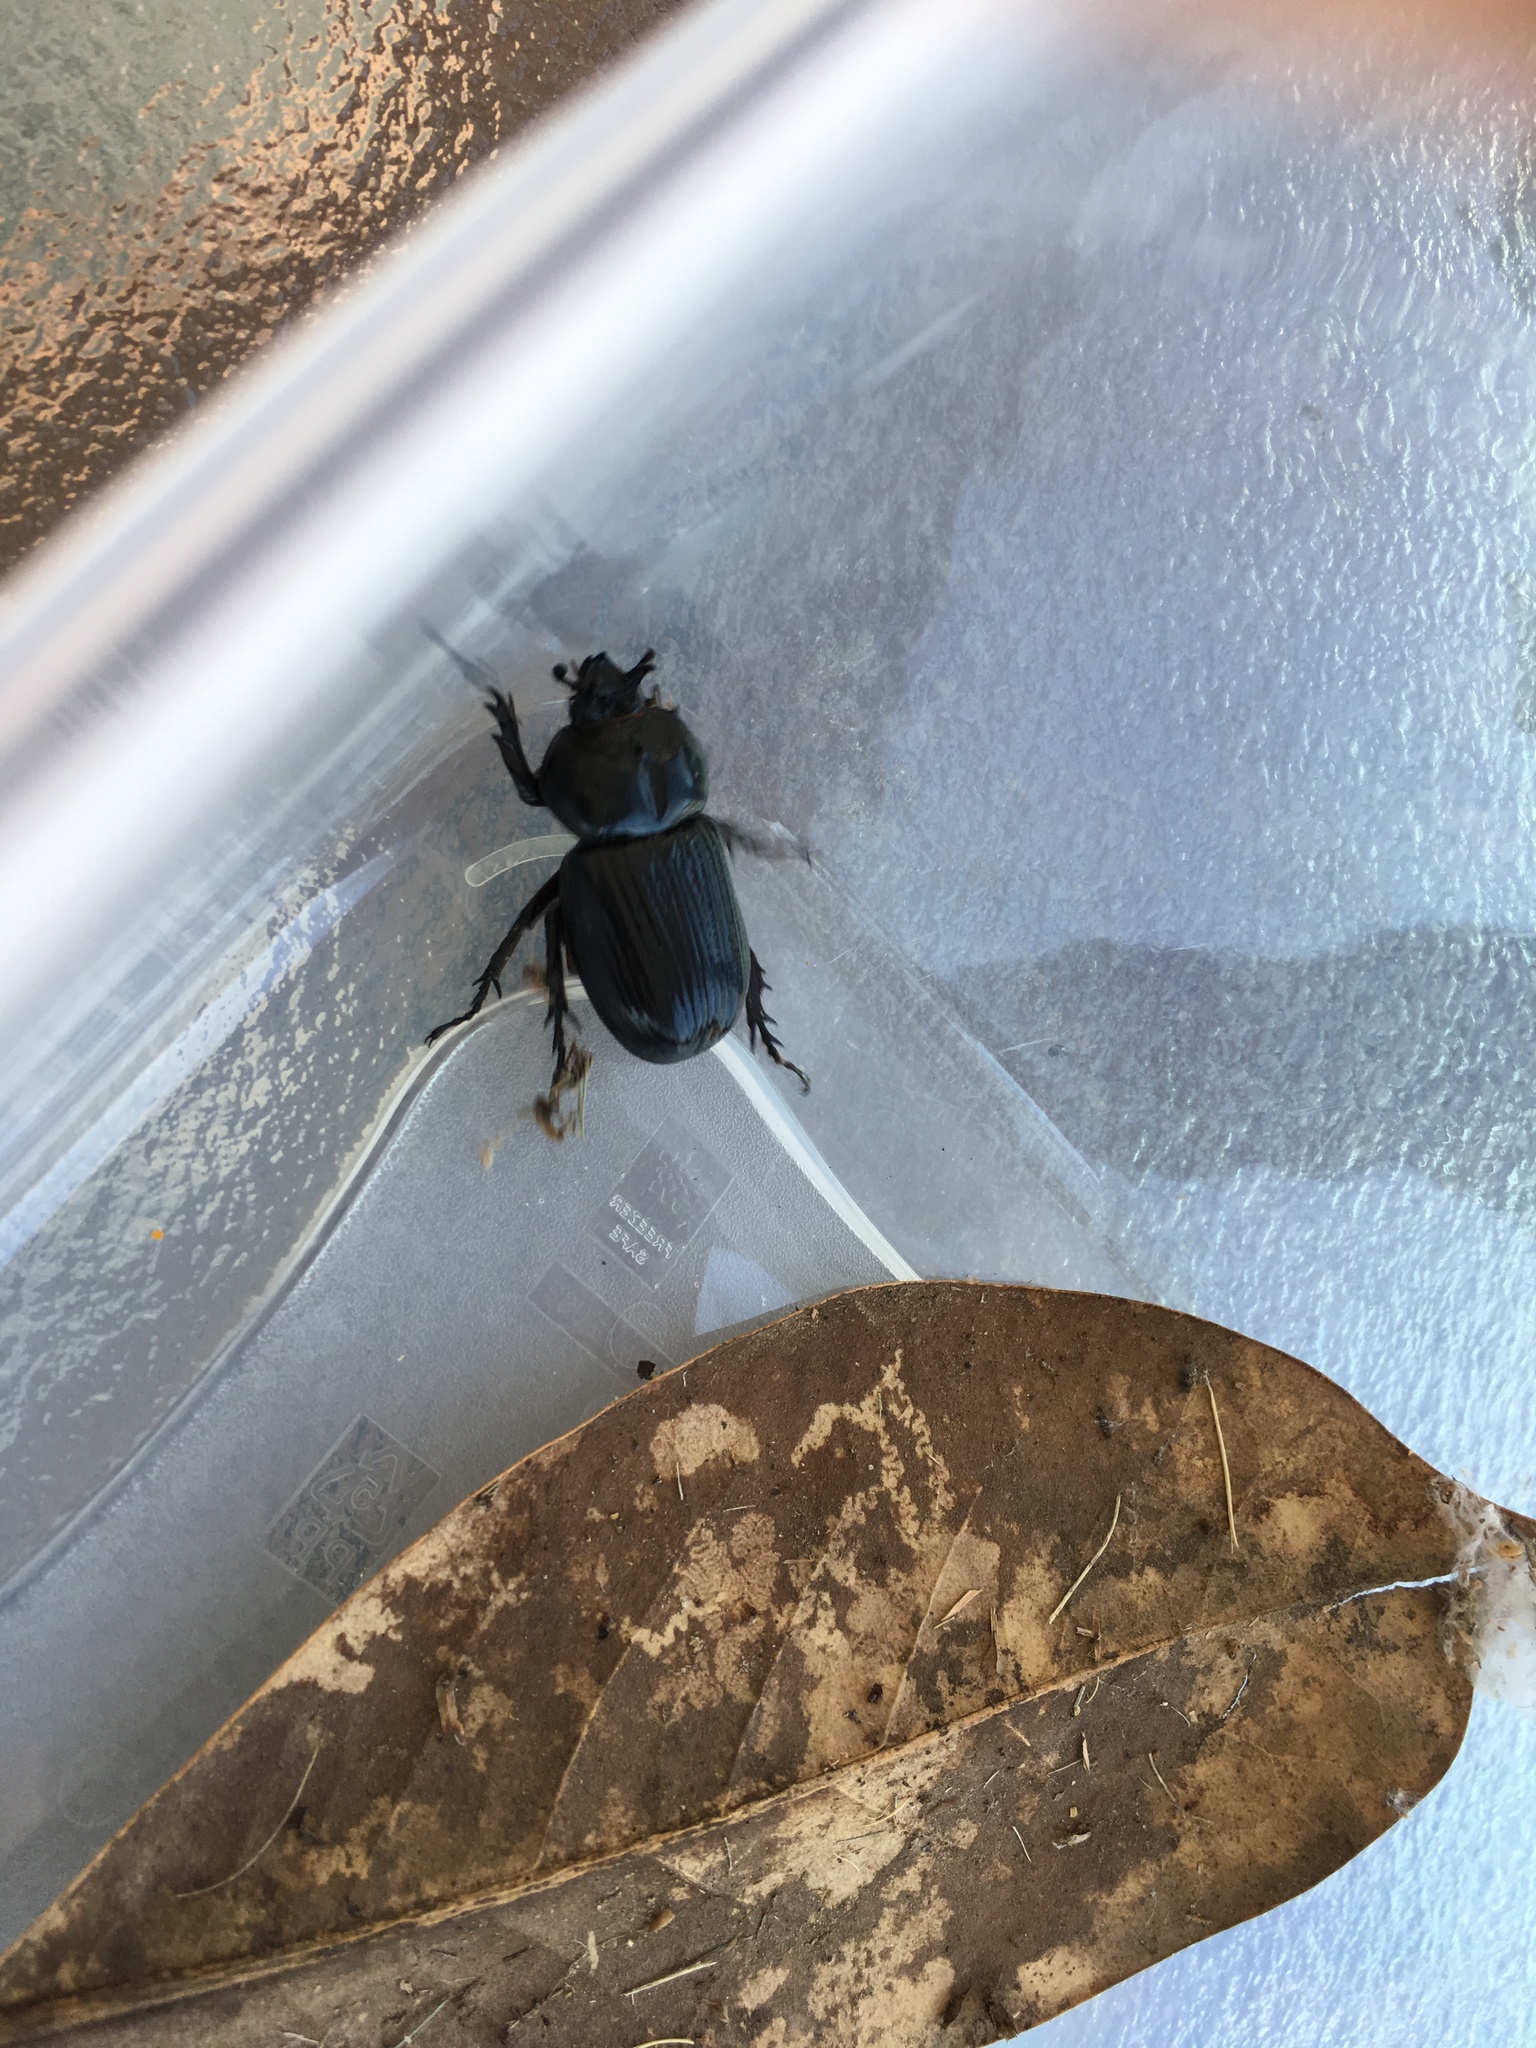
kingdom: Animalia
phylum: Arthropoda
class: Insecta
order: Coleoptera
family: Scarabaeidae
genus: Phileurus
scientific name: Phileurus truncatus
